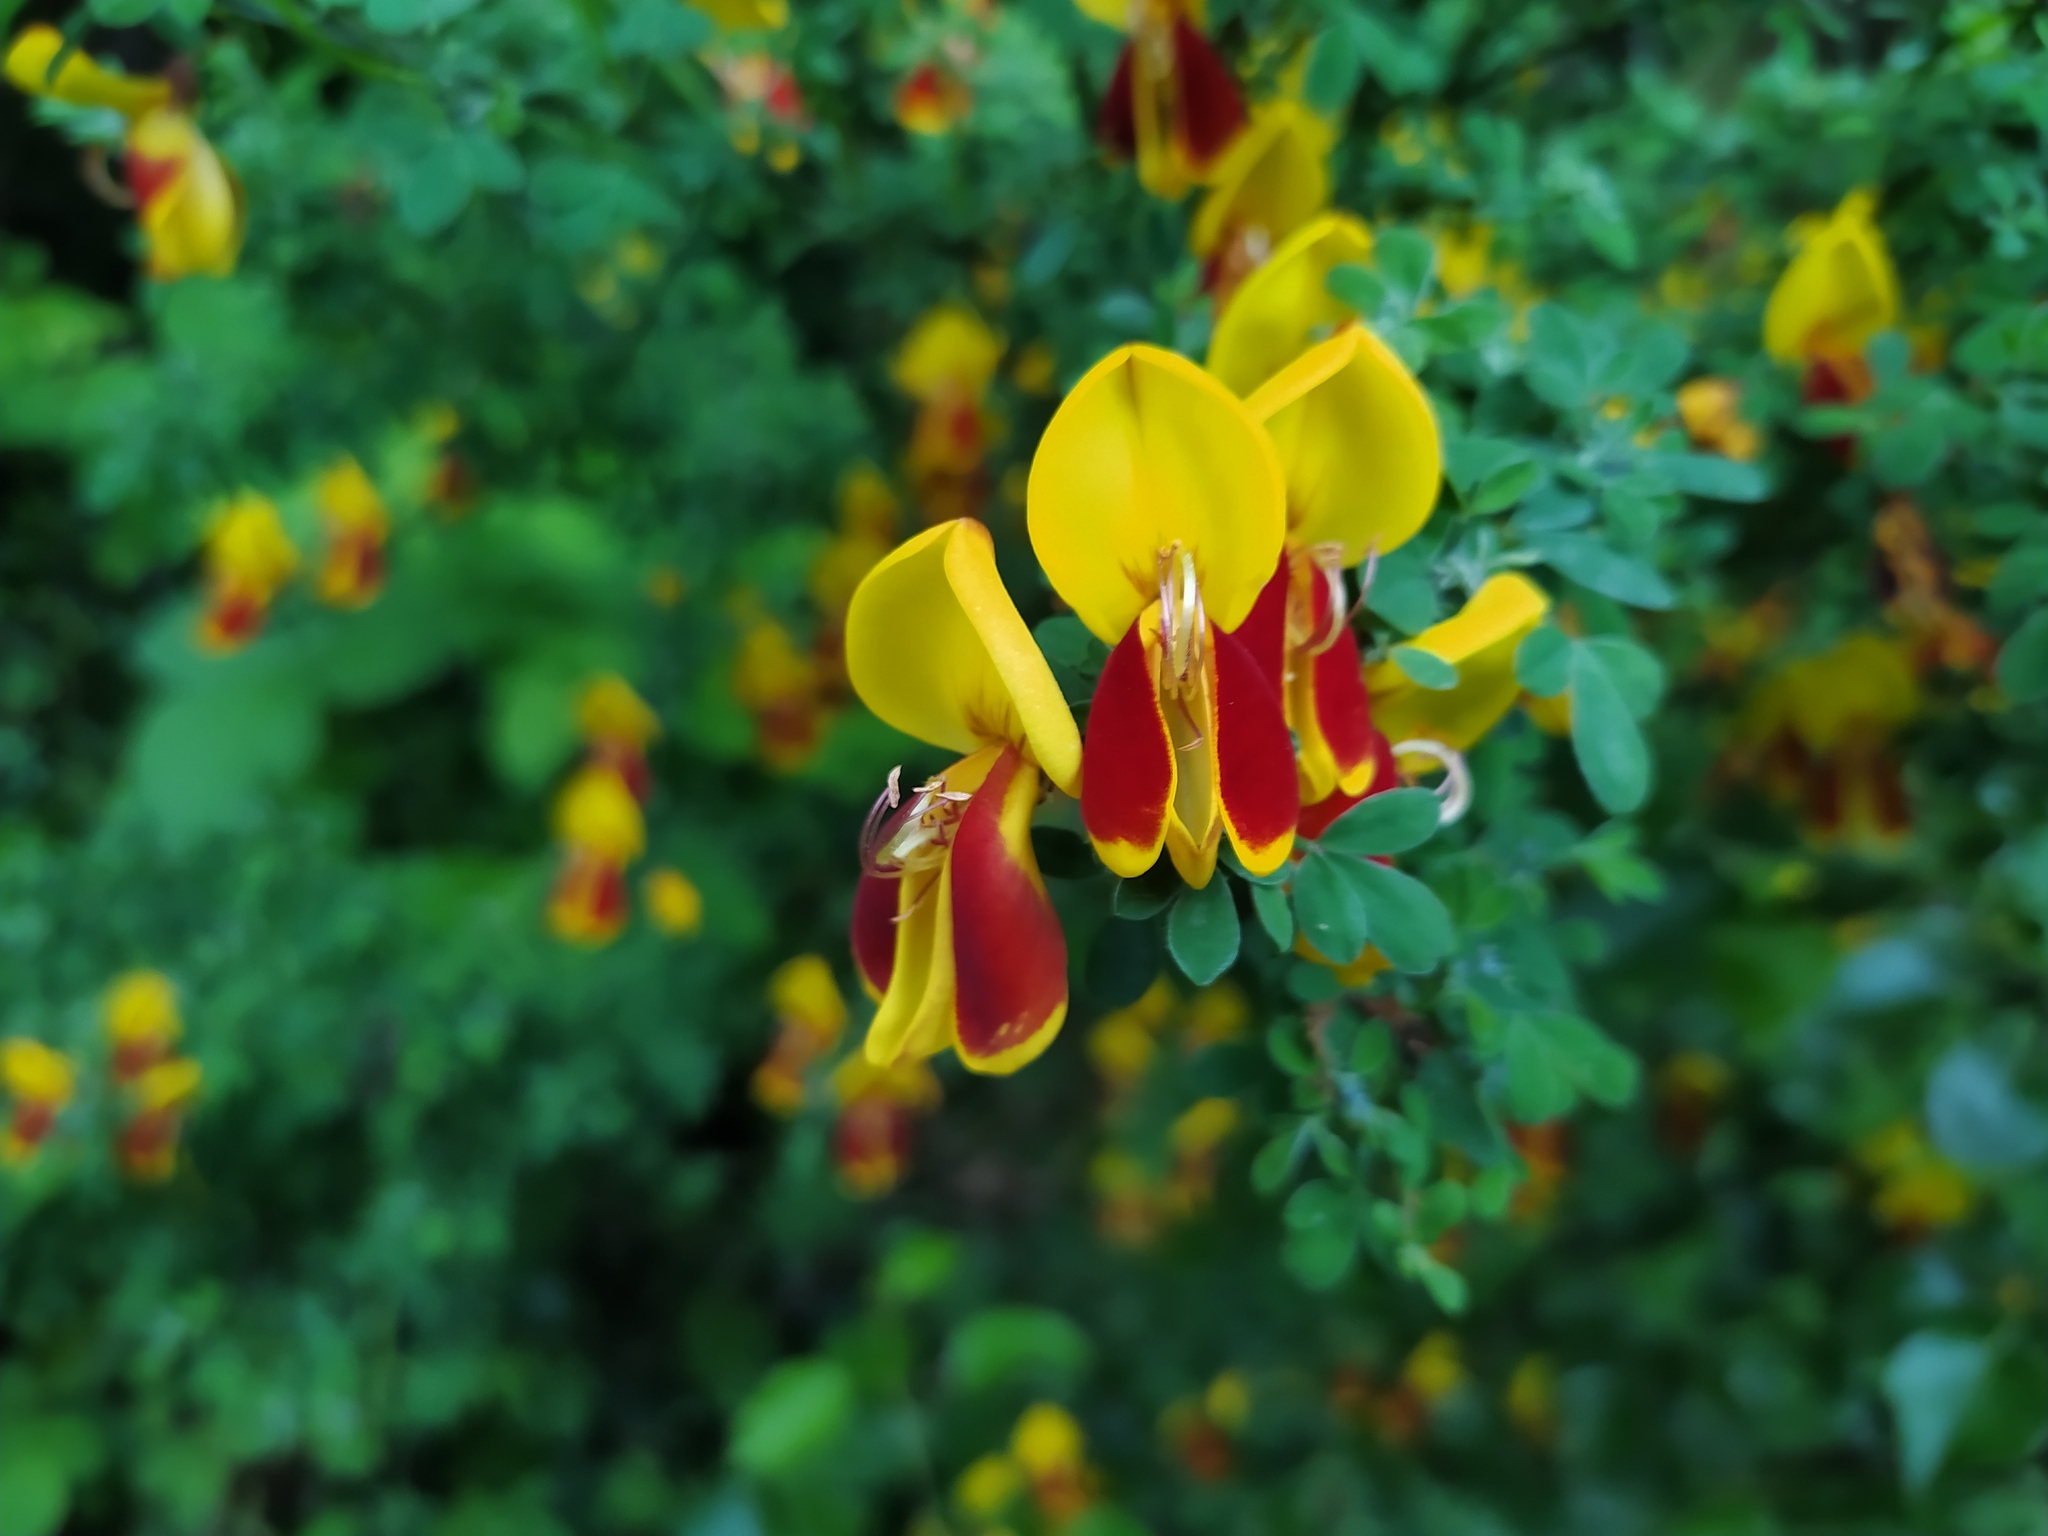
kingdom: Plantae
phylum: Tracheophyta
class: Magnoliopsida
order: Fabales
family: Fabaceae
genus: Cytisus
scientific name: Cytisus scoparius
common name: Scotch broom
